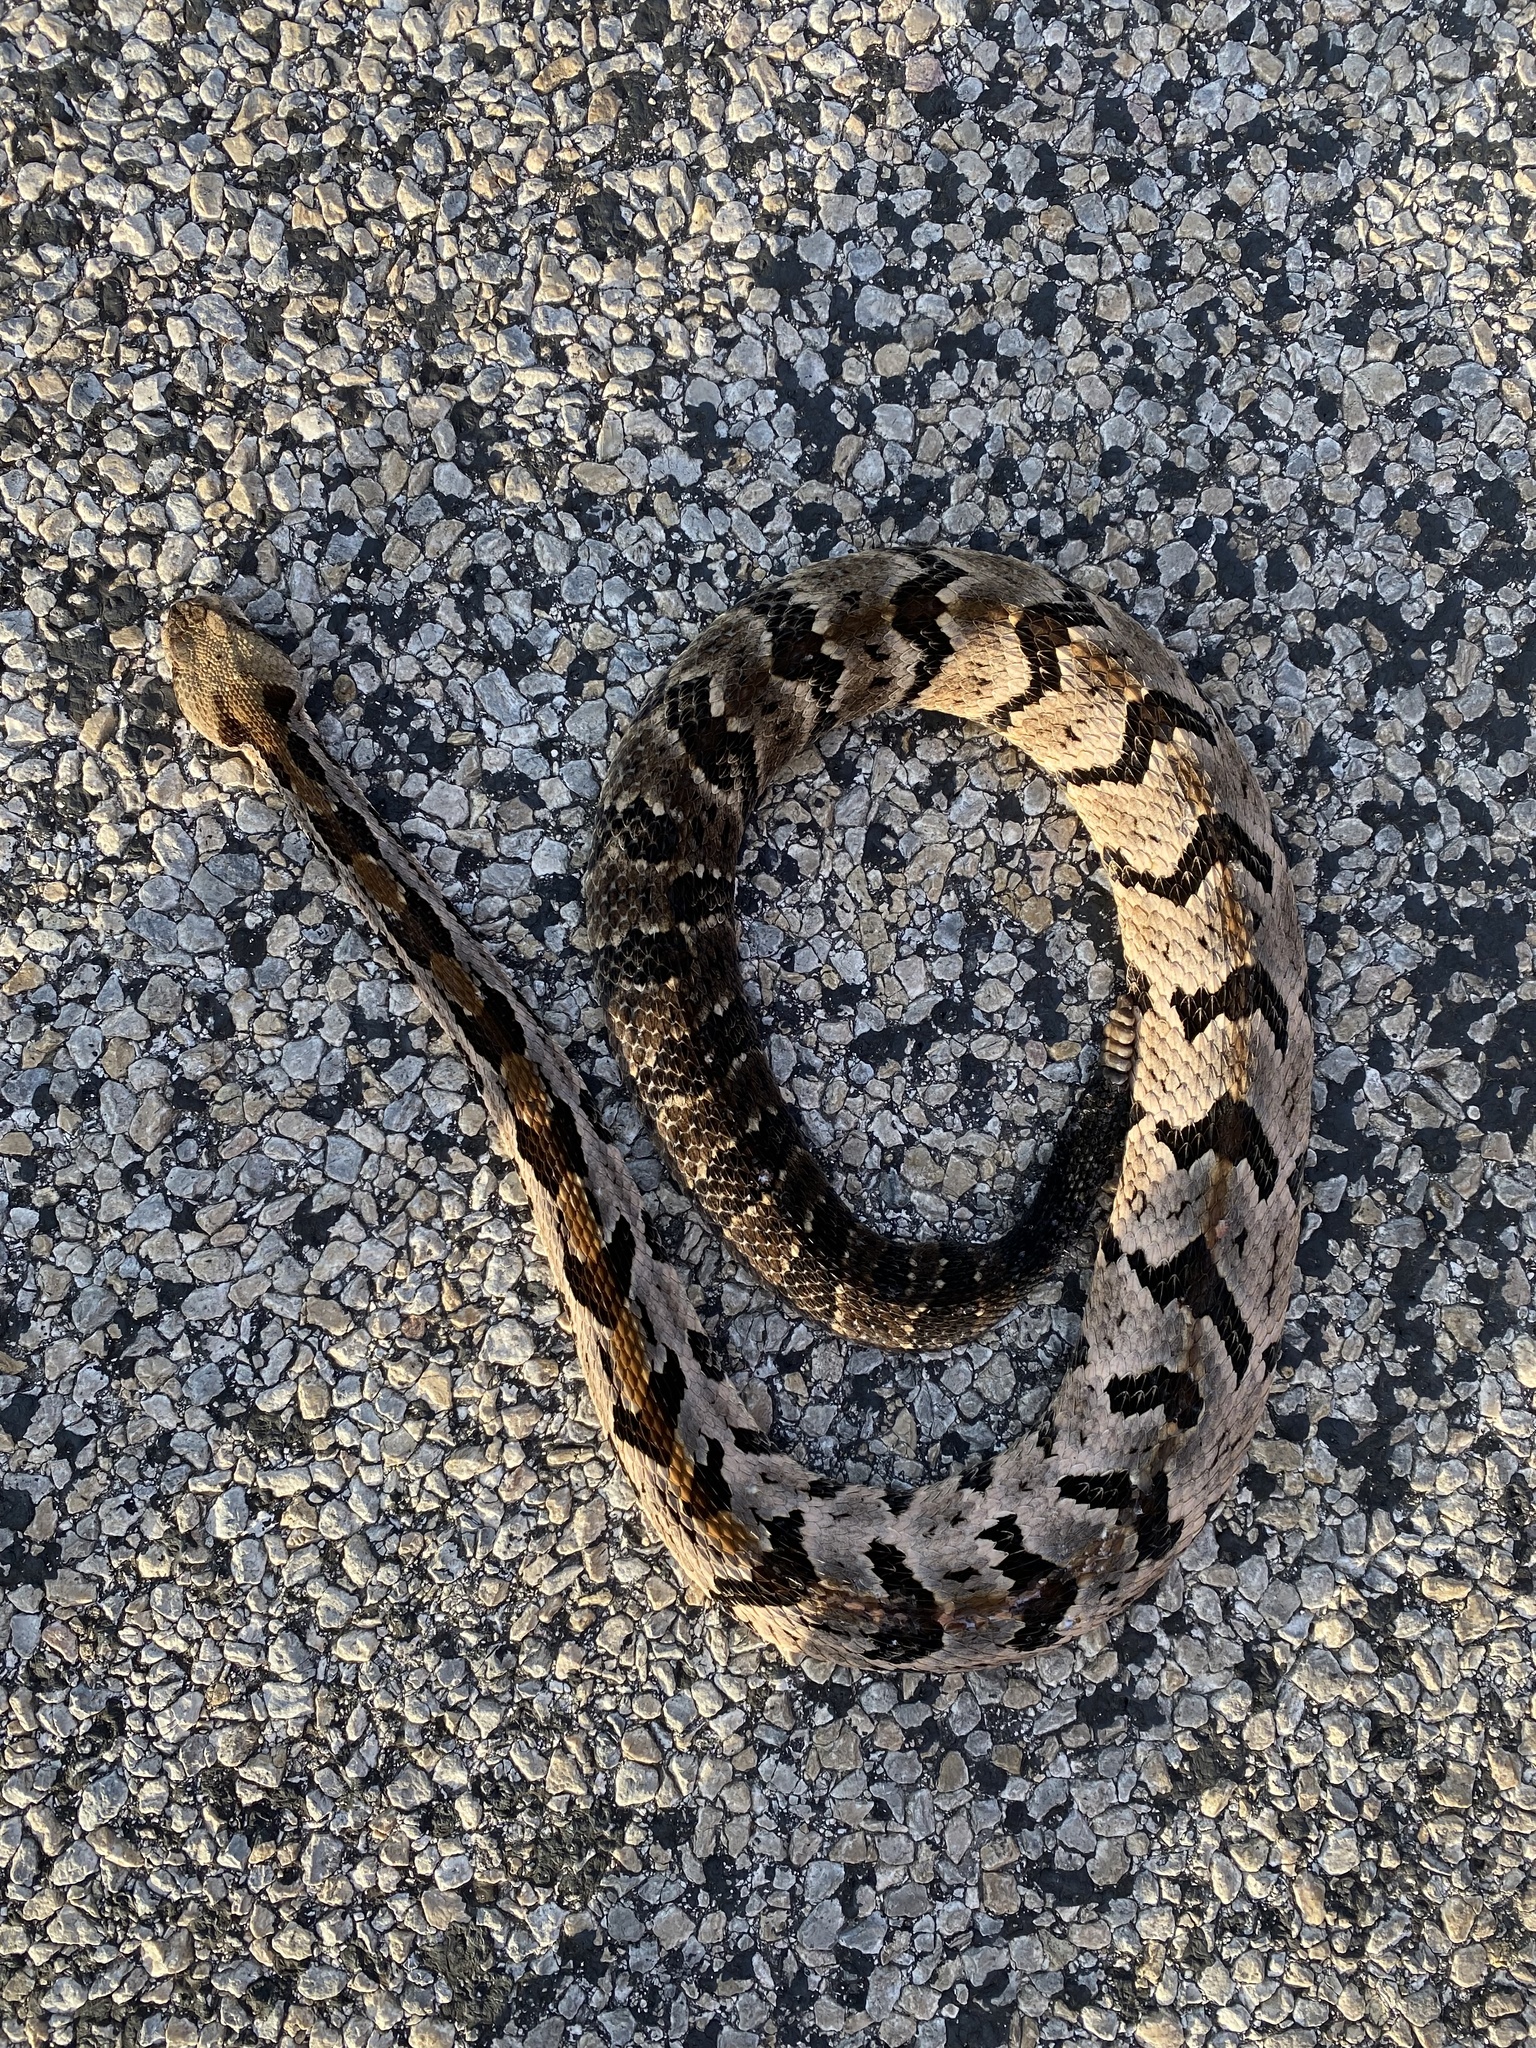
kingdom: Animalia
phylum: Chordata
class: Squamata
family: Viperidae
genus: Crotalus
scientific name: Crotalus horridus
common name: Timber rattlesnake
